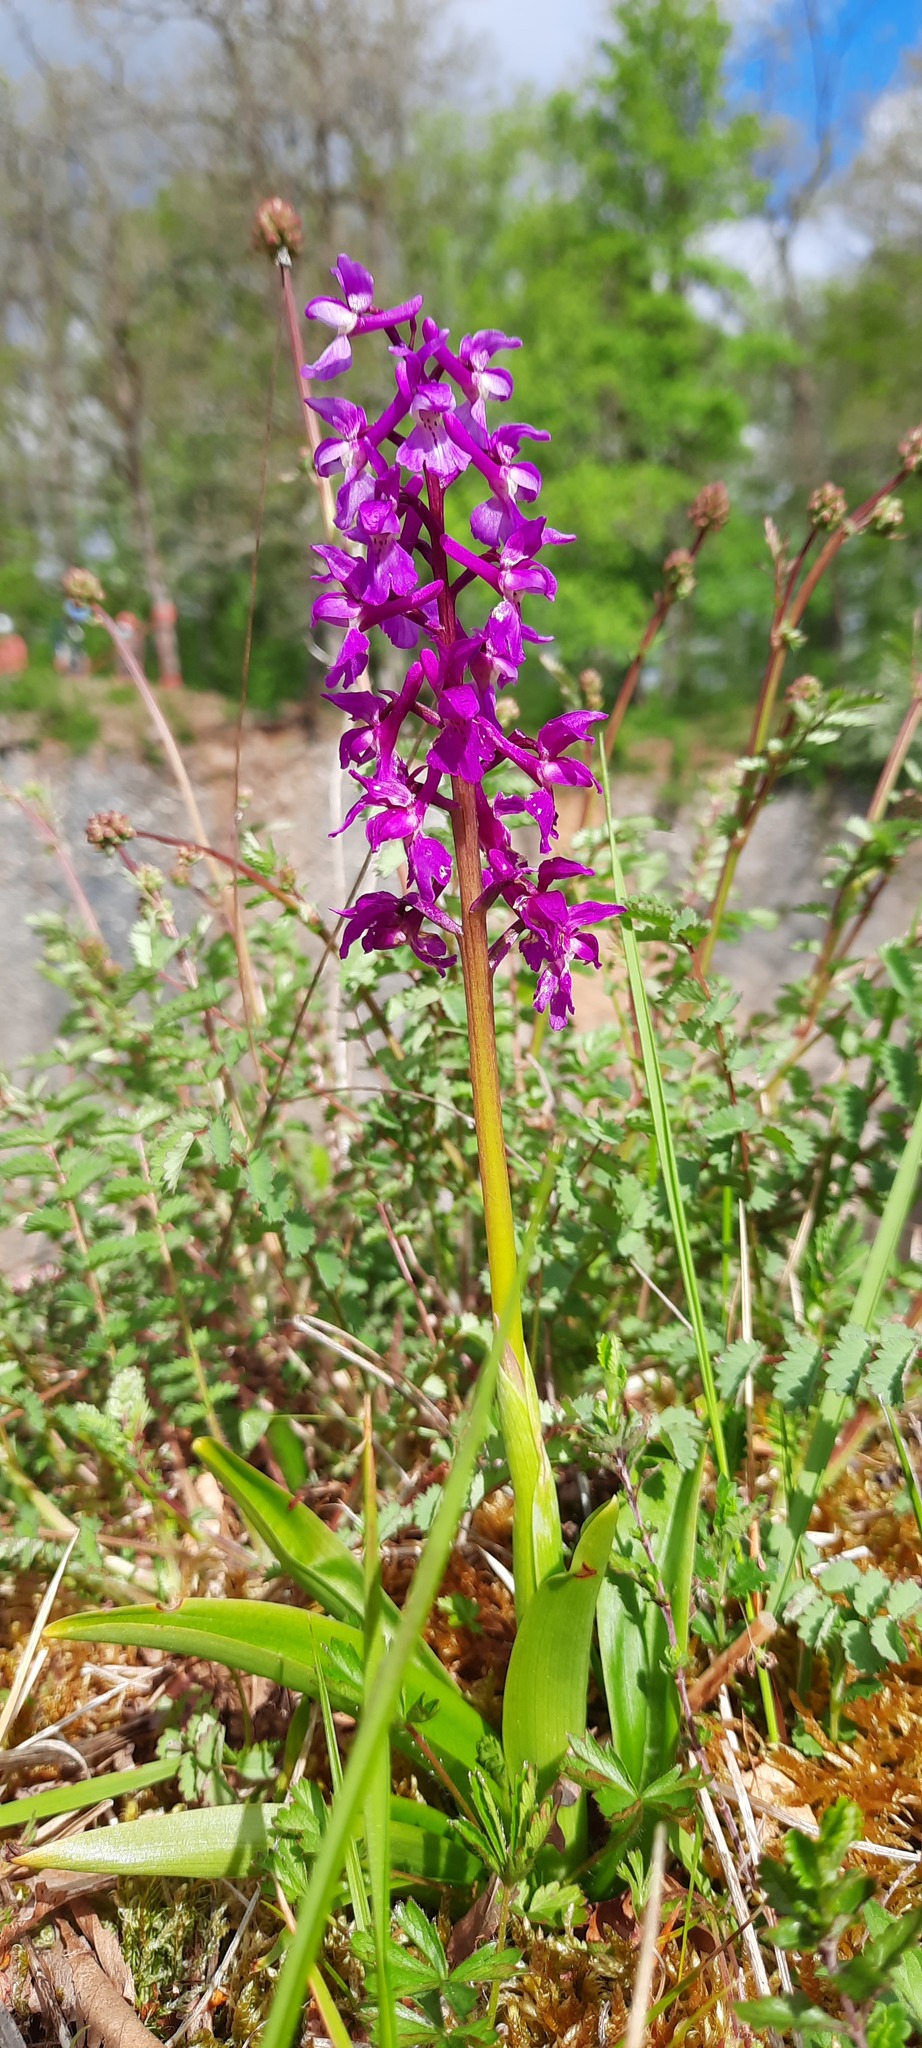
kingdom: Plantae
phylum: Tracheophyta
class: Liliopsida
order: Asparagales
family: Orchidaceae
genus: Orchis
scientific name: Orchis mascula
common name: Early-purple orchid
